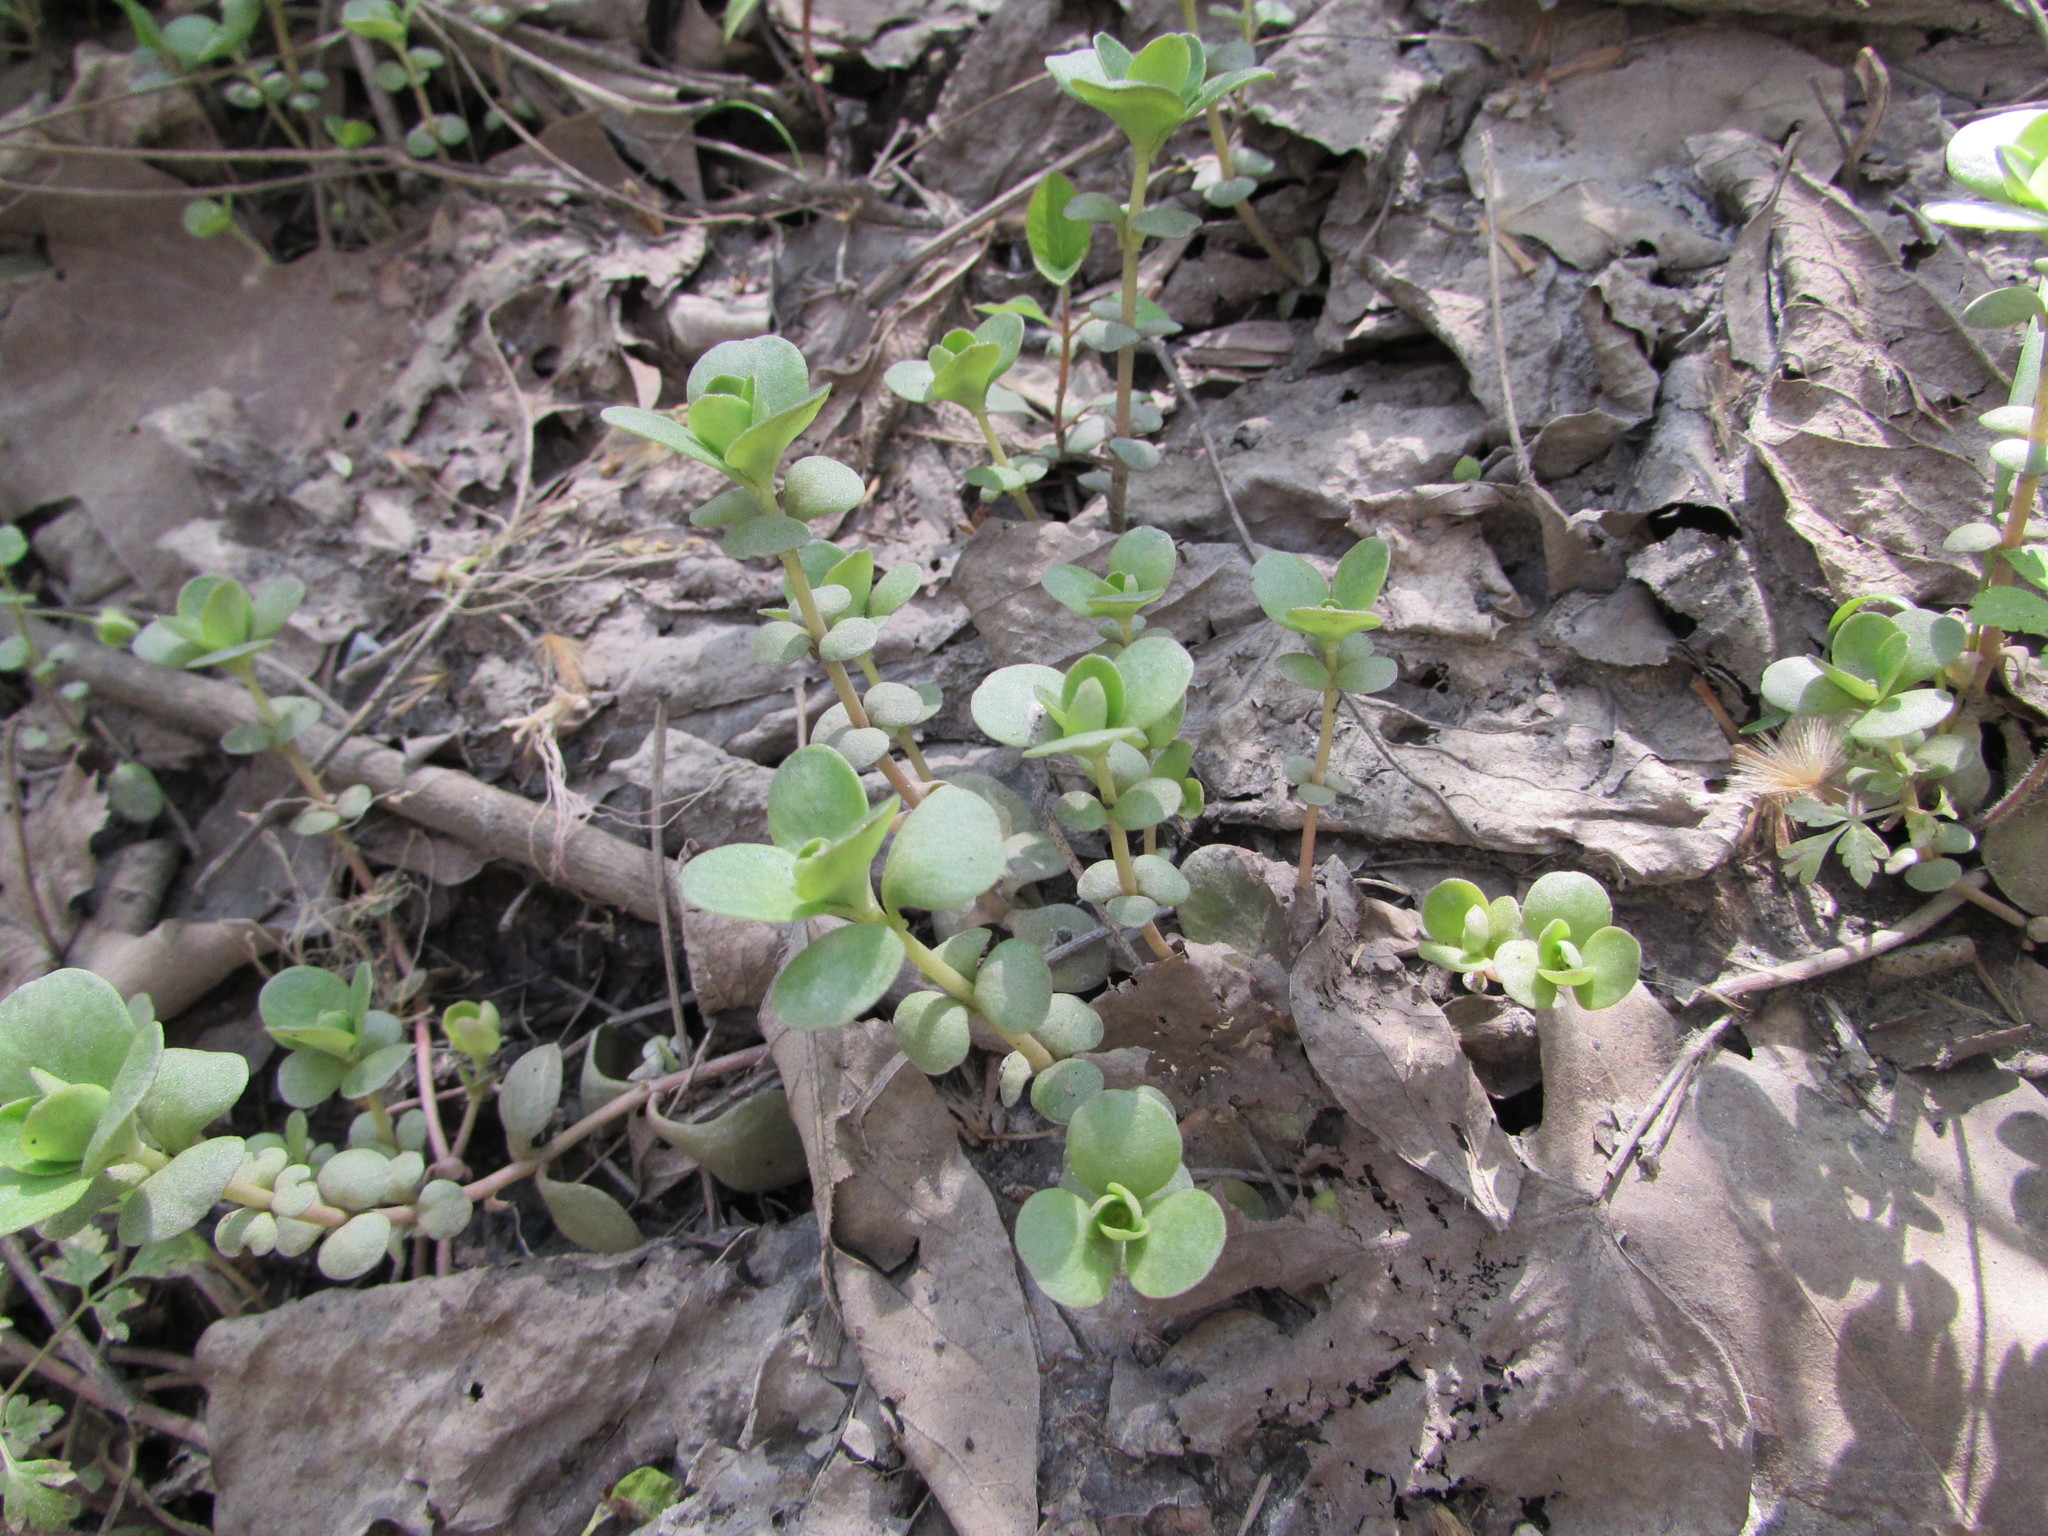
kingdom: Plantae
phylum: Tracheophyta
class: Magnoliopsida
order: Saxifragales
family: Crassulaceae
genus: Sedum
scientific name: Sedum ternatum
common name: Wild stonecrop
